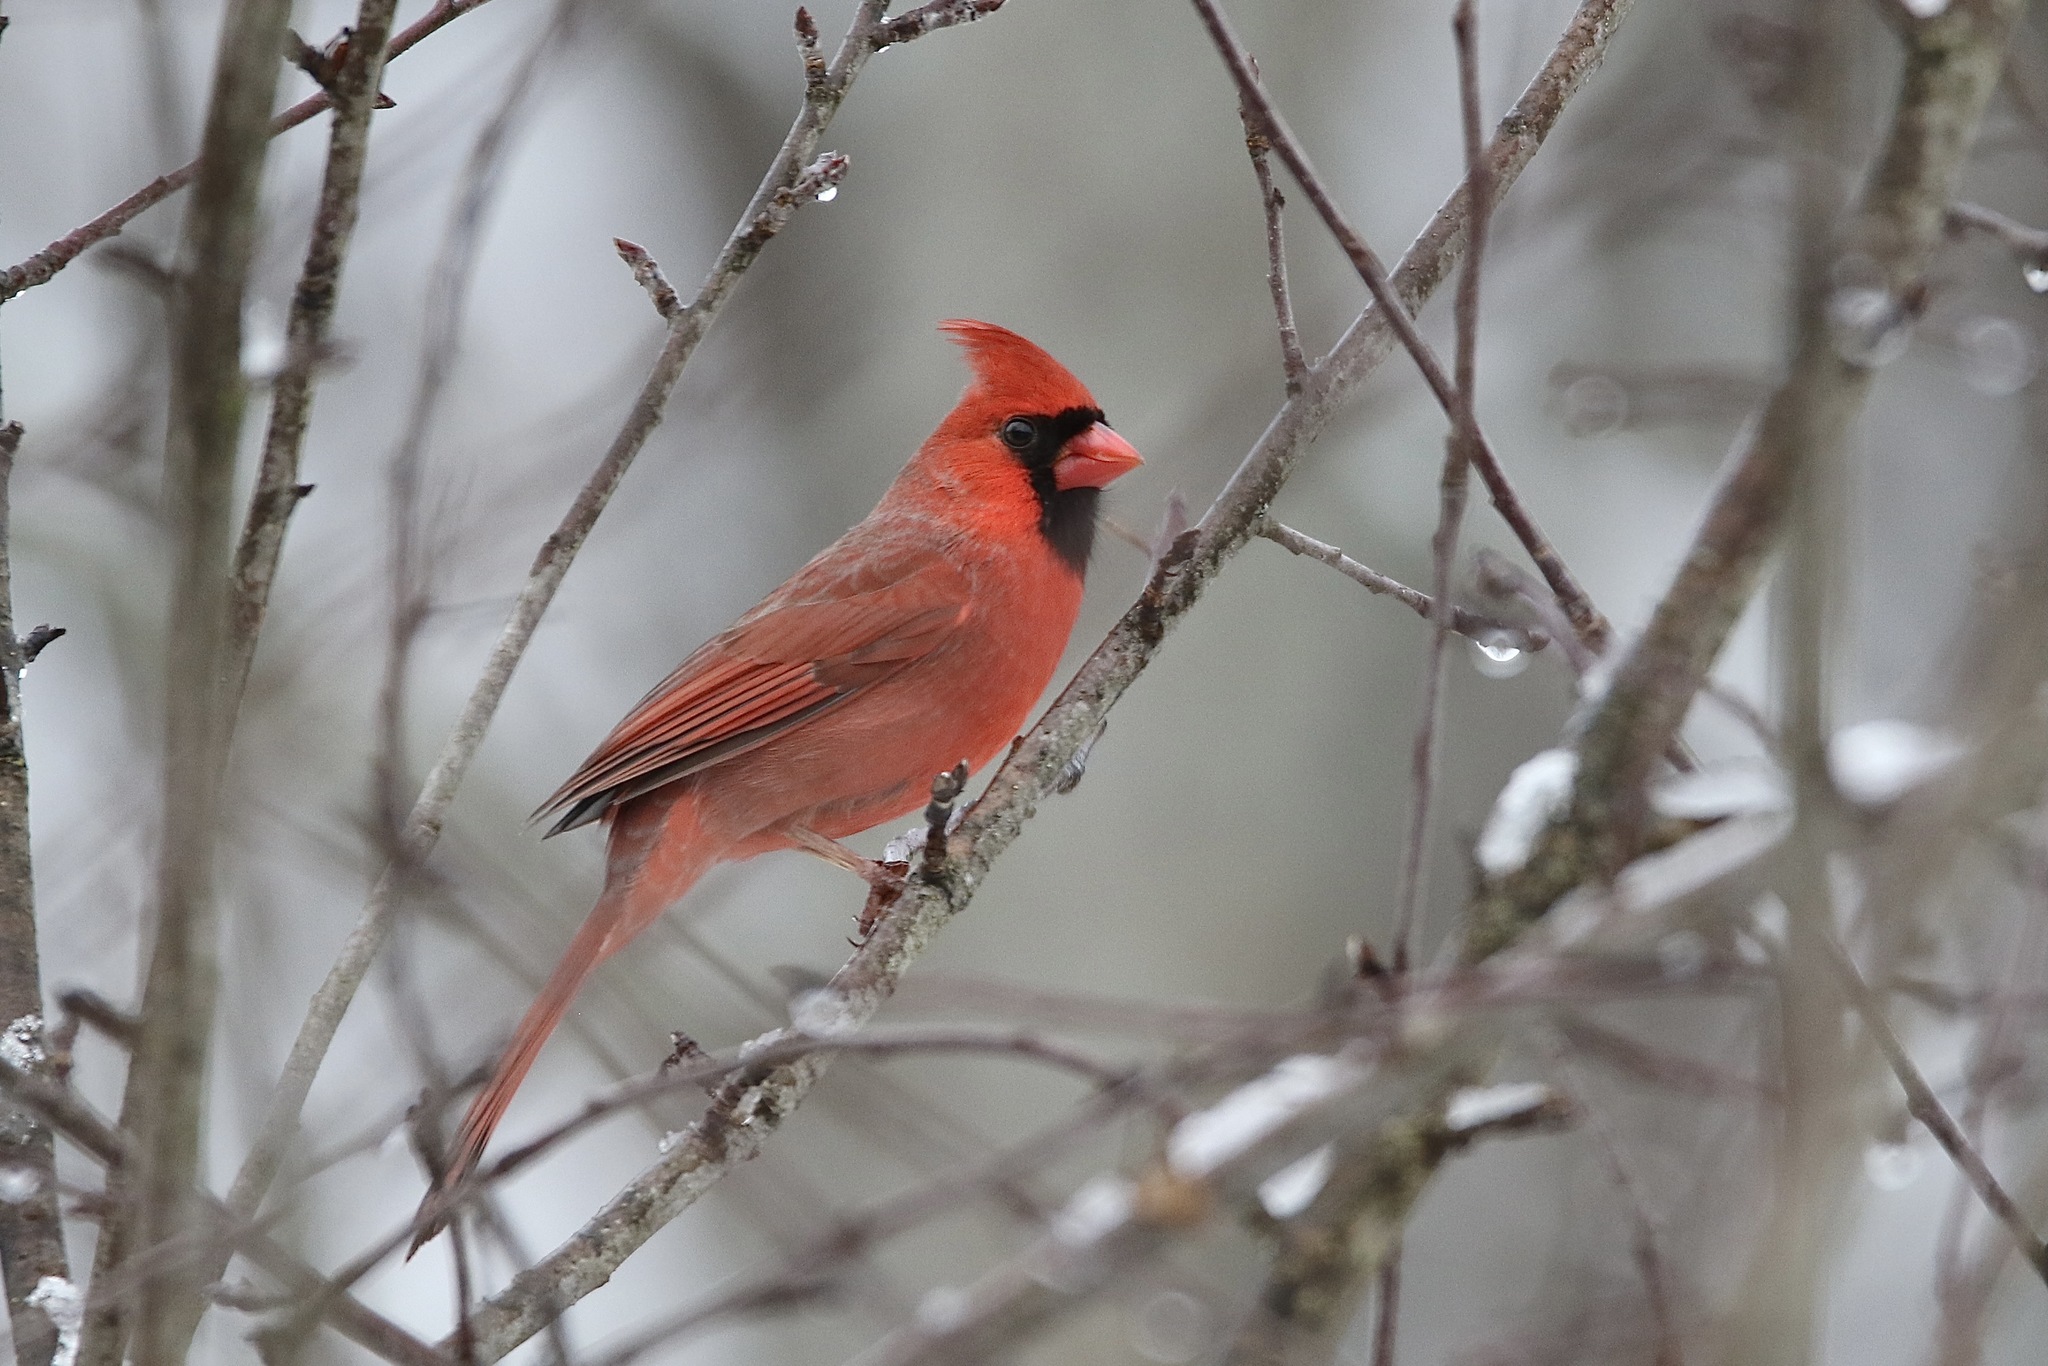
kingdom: Animalia
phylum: Chordata
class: Aves
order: Passeriformes
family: Cardinalidae
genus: Cardinalis
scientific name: Cardinalis cardinalis
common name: Northern cardinal
